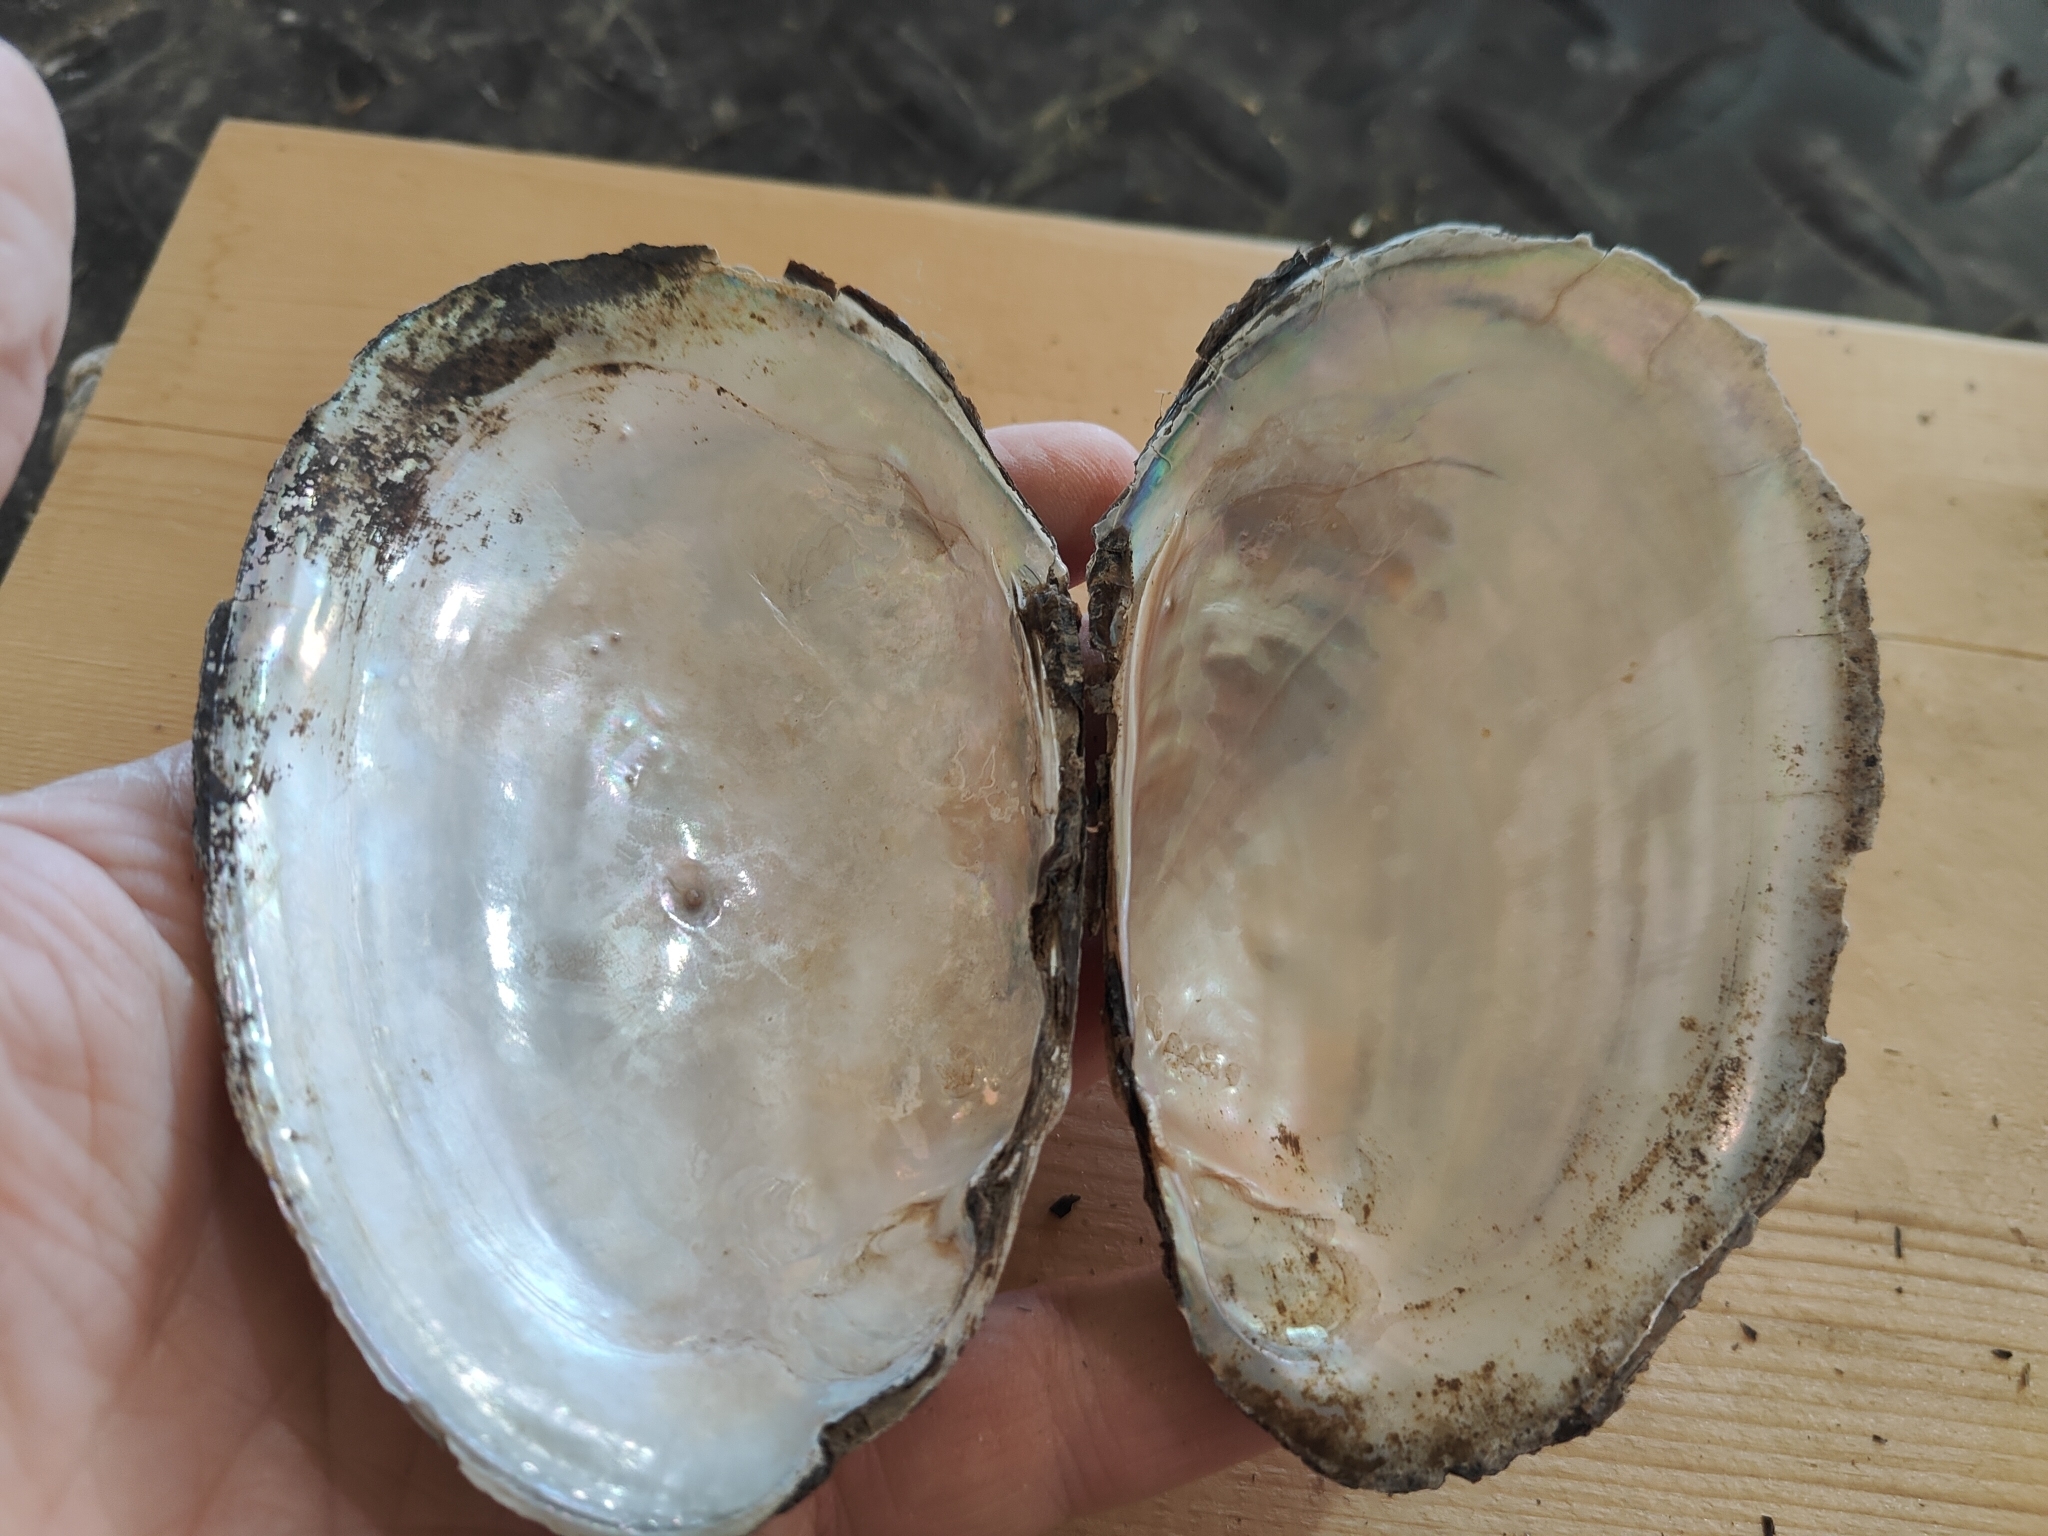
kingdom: Animalia
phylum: Mollusca
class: Bivalvia
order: Unionida
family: Unionidae
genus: Potamilus
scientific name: Potamilus fragilis
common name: Fragile papershell
